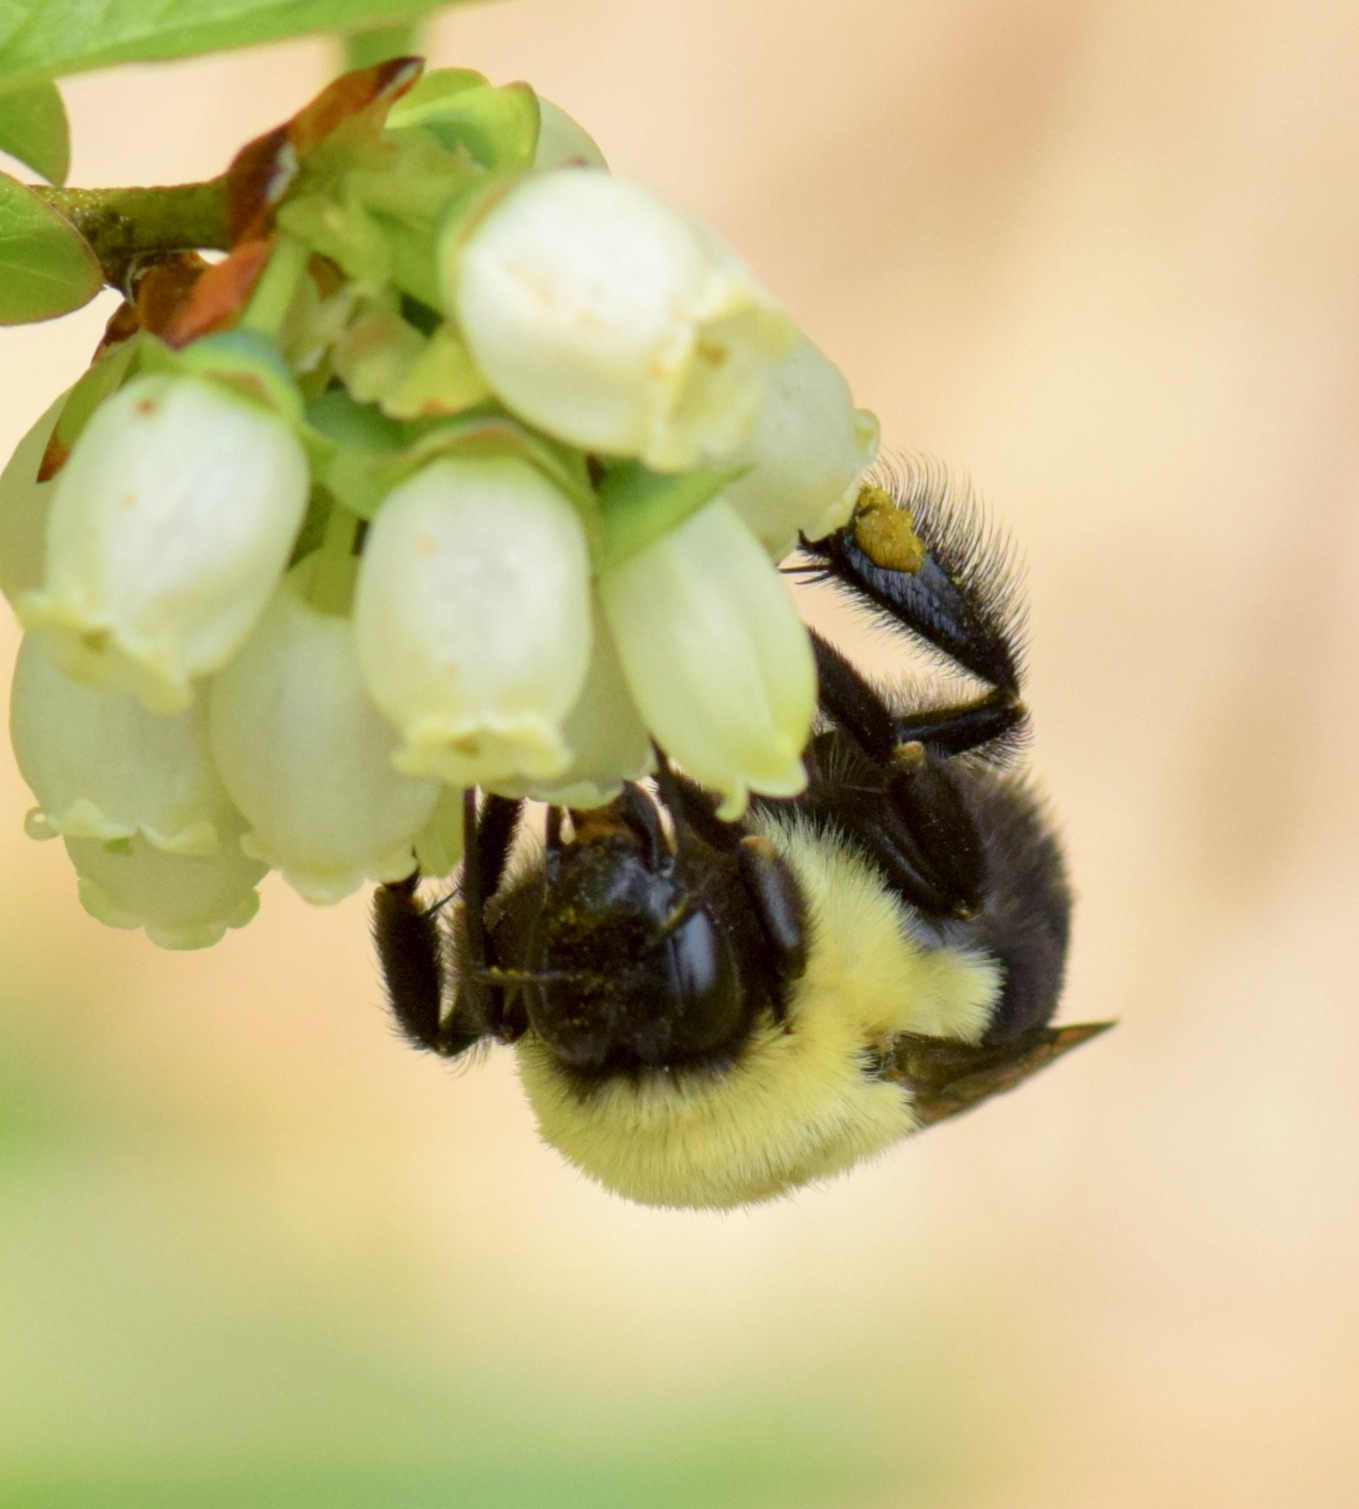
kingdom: Animalia
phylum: Arthropoda
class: Insecta
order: Hymenoptera
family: Apidae
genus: Bombus
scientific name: Bombus impatiens
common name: Common eastern bumble bee
